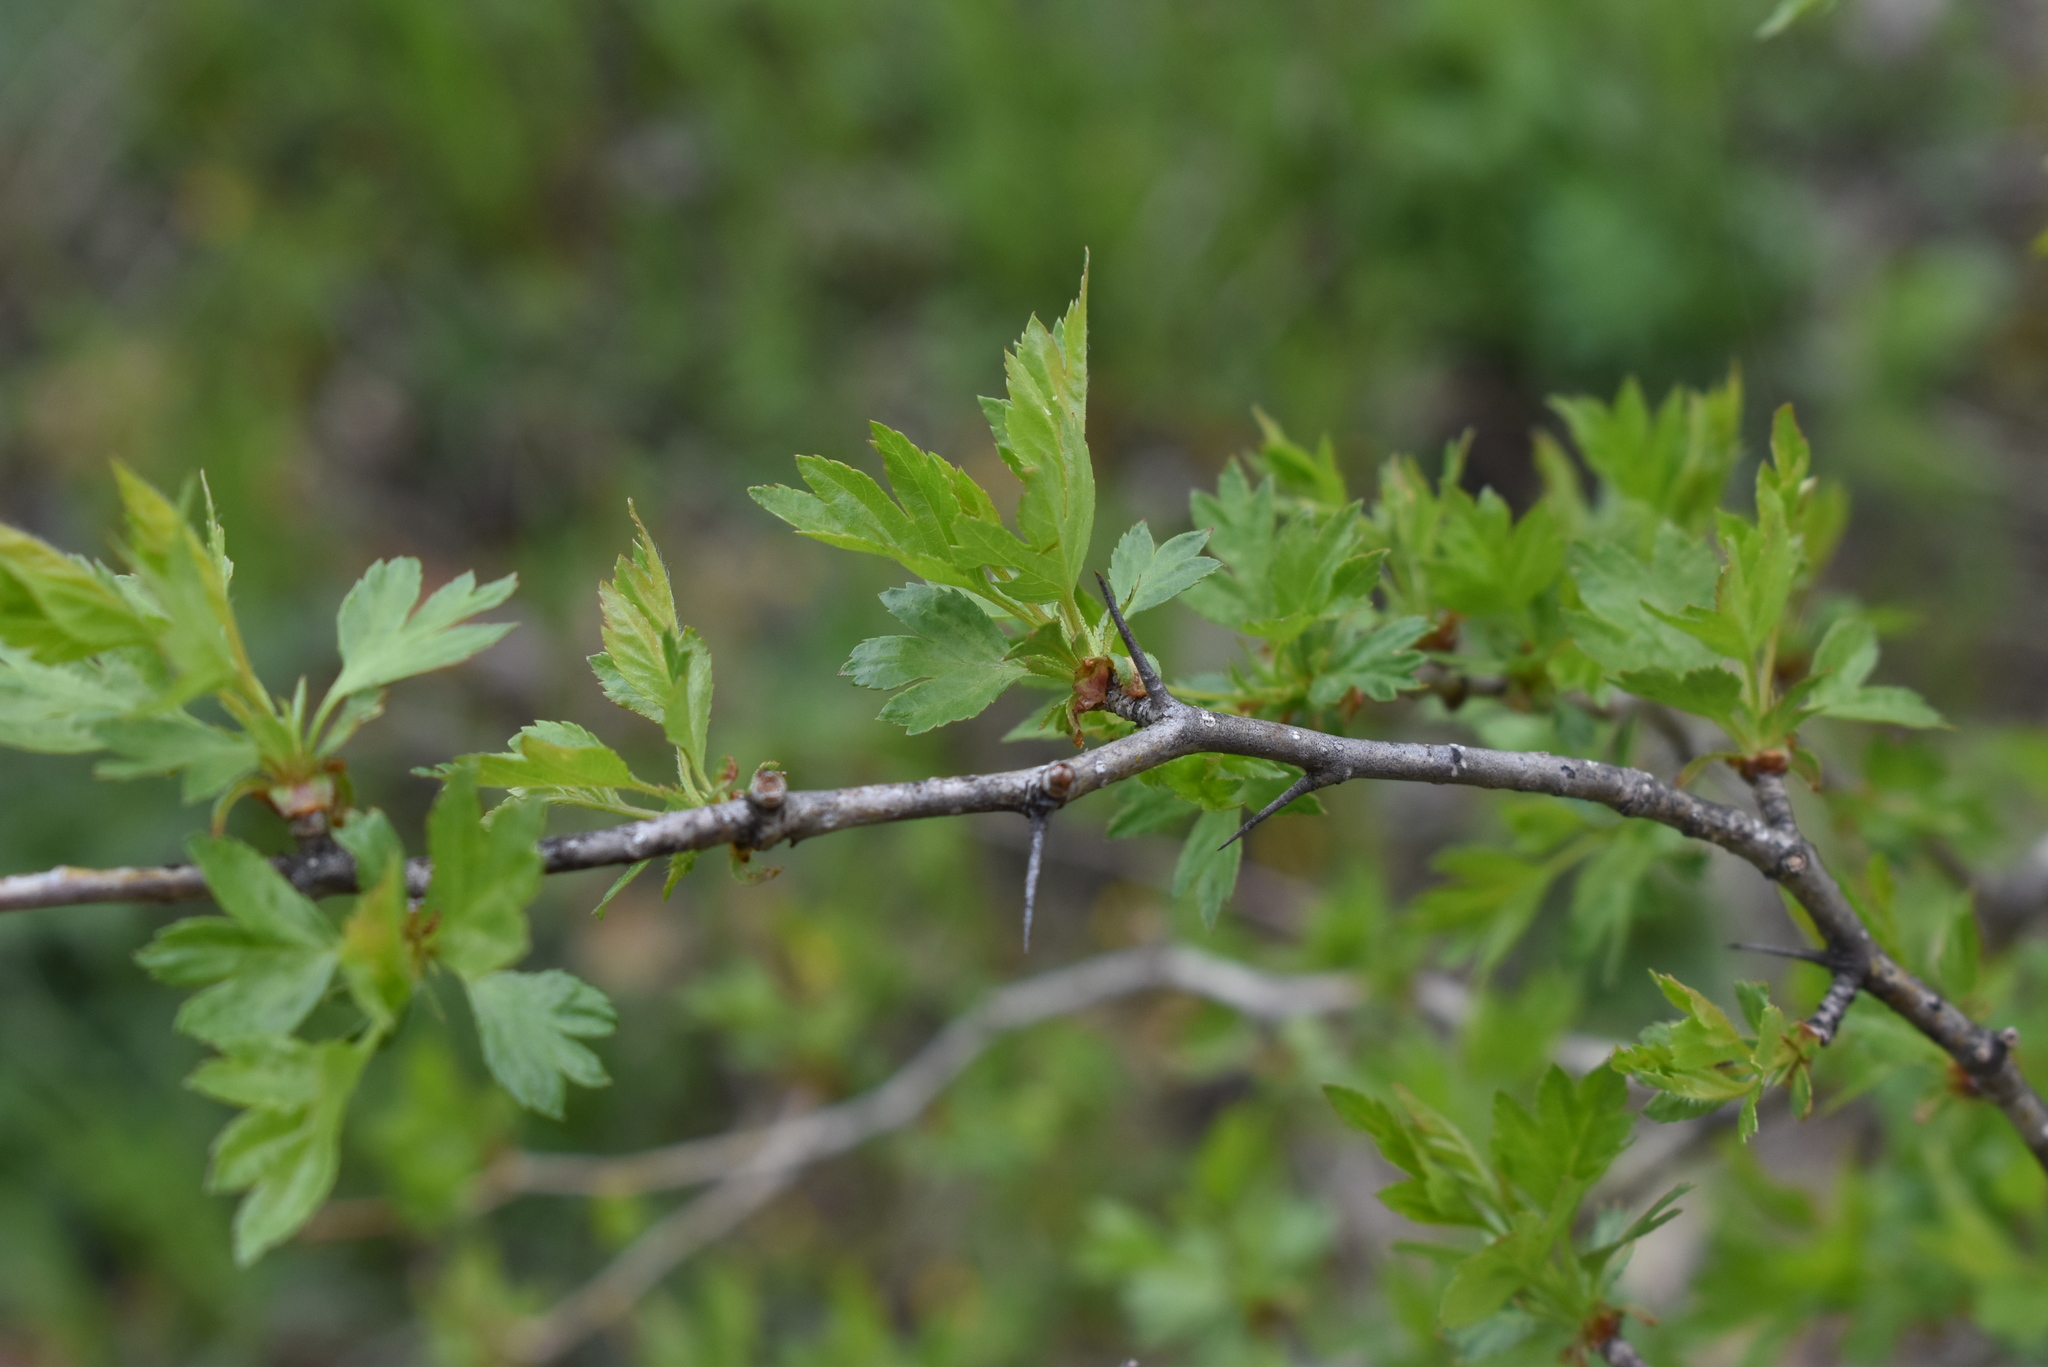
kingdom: Plantae
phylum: Tracheophyta
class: Magnoliopsida
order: Rosales
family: Rosaceae
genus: Crataegus
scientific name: Crataegus pinnatifida
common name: Chinese haw
